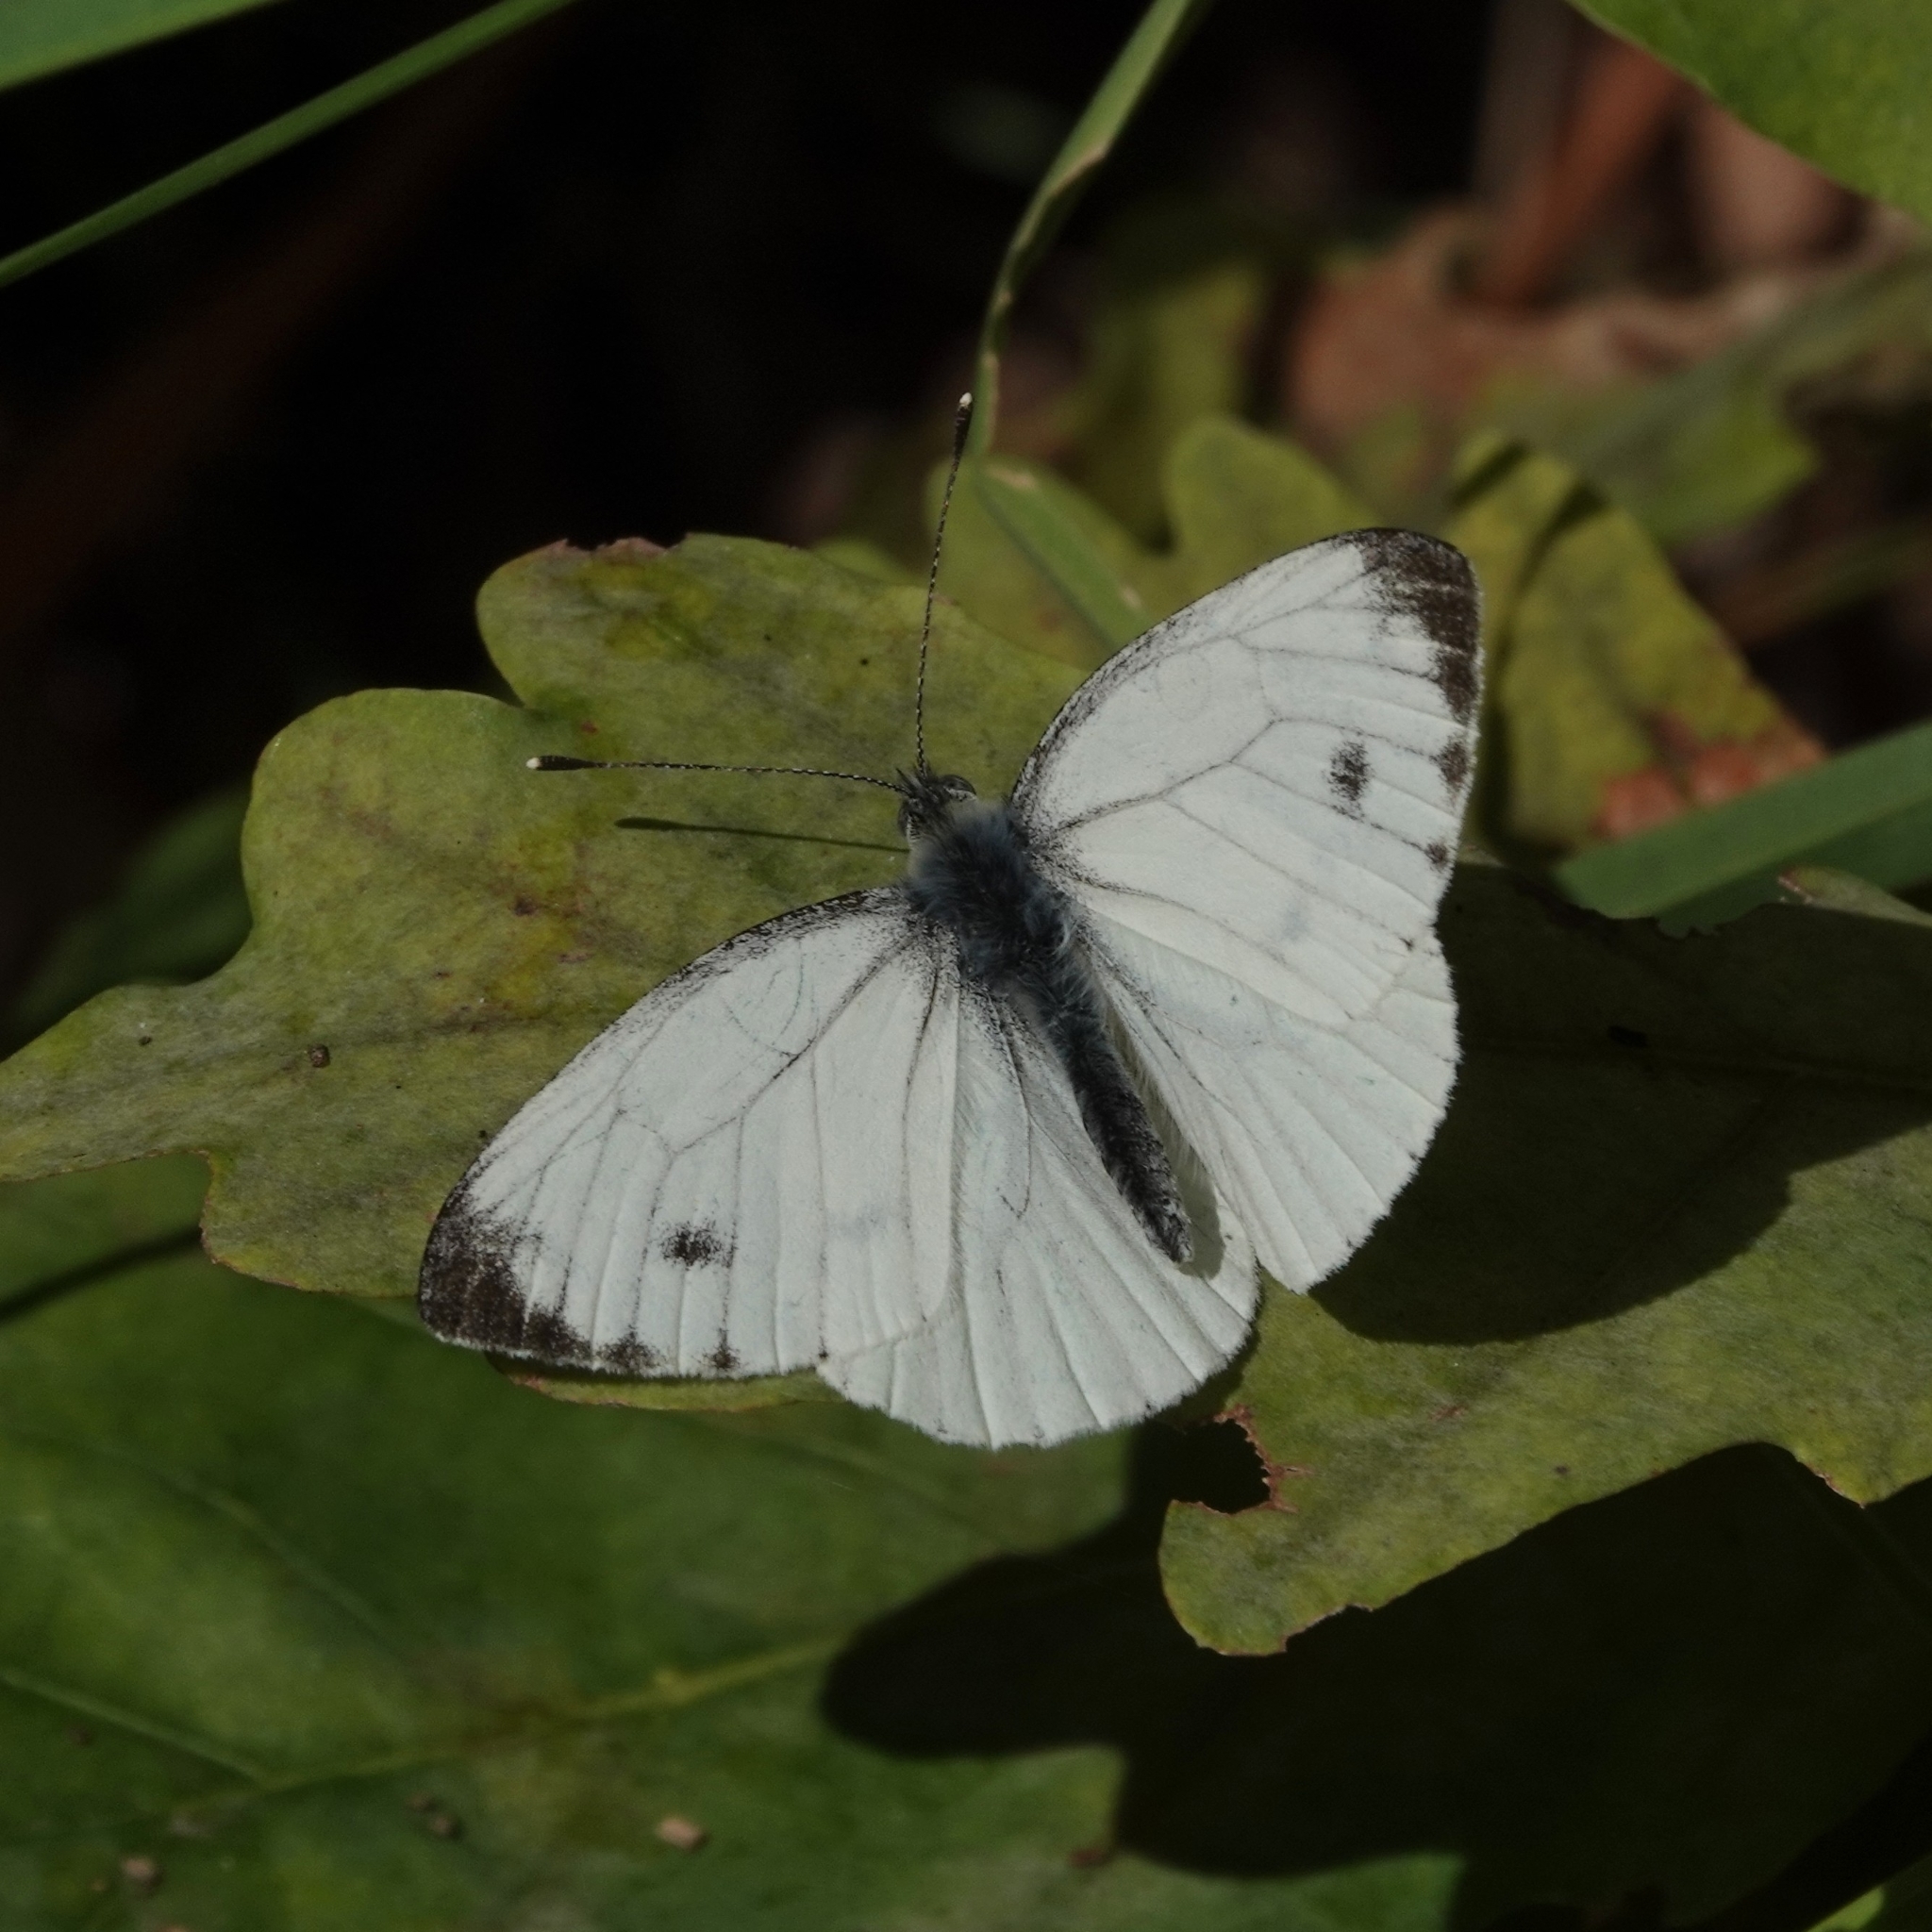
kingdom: Animalia
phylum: Arthropoda
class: Insecta
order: Lepidoptera
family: Pieridae
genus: Pieris
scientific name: Pieris napi
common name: Green-veined white
